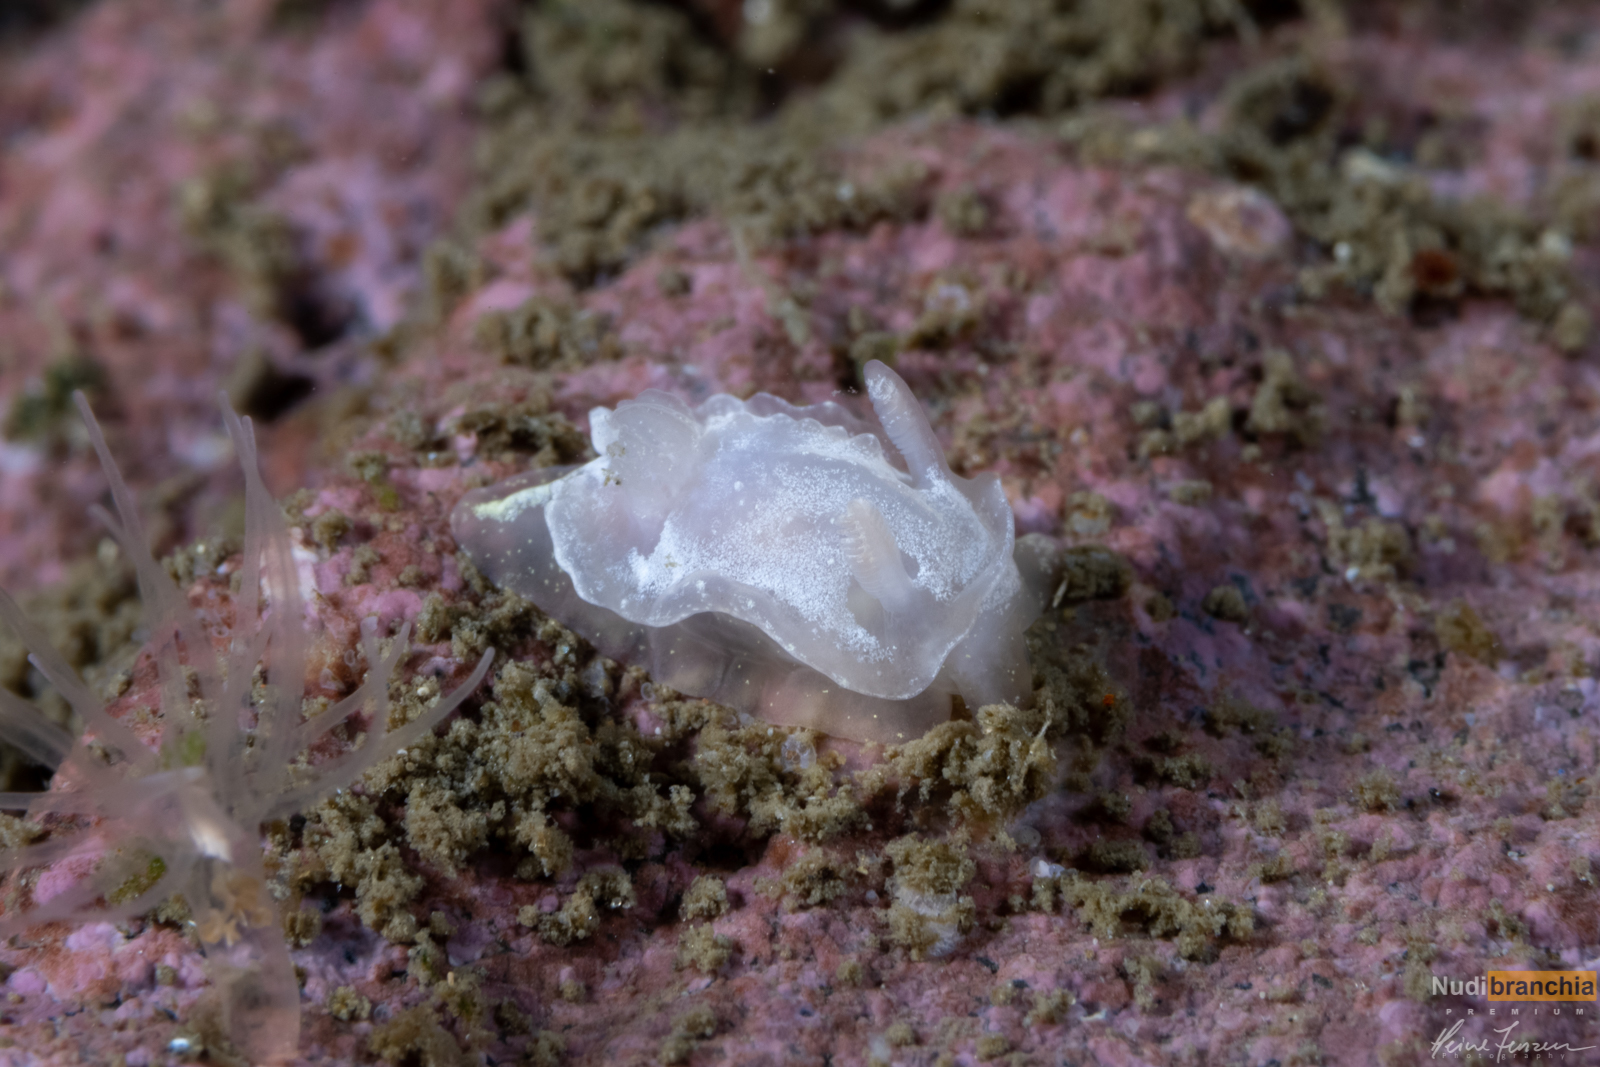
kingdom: Animalia
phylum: Mollusca
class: Gastropoda
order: Nudibranchia
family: Goniodorididae
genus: Okenia
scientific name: Okenia
